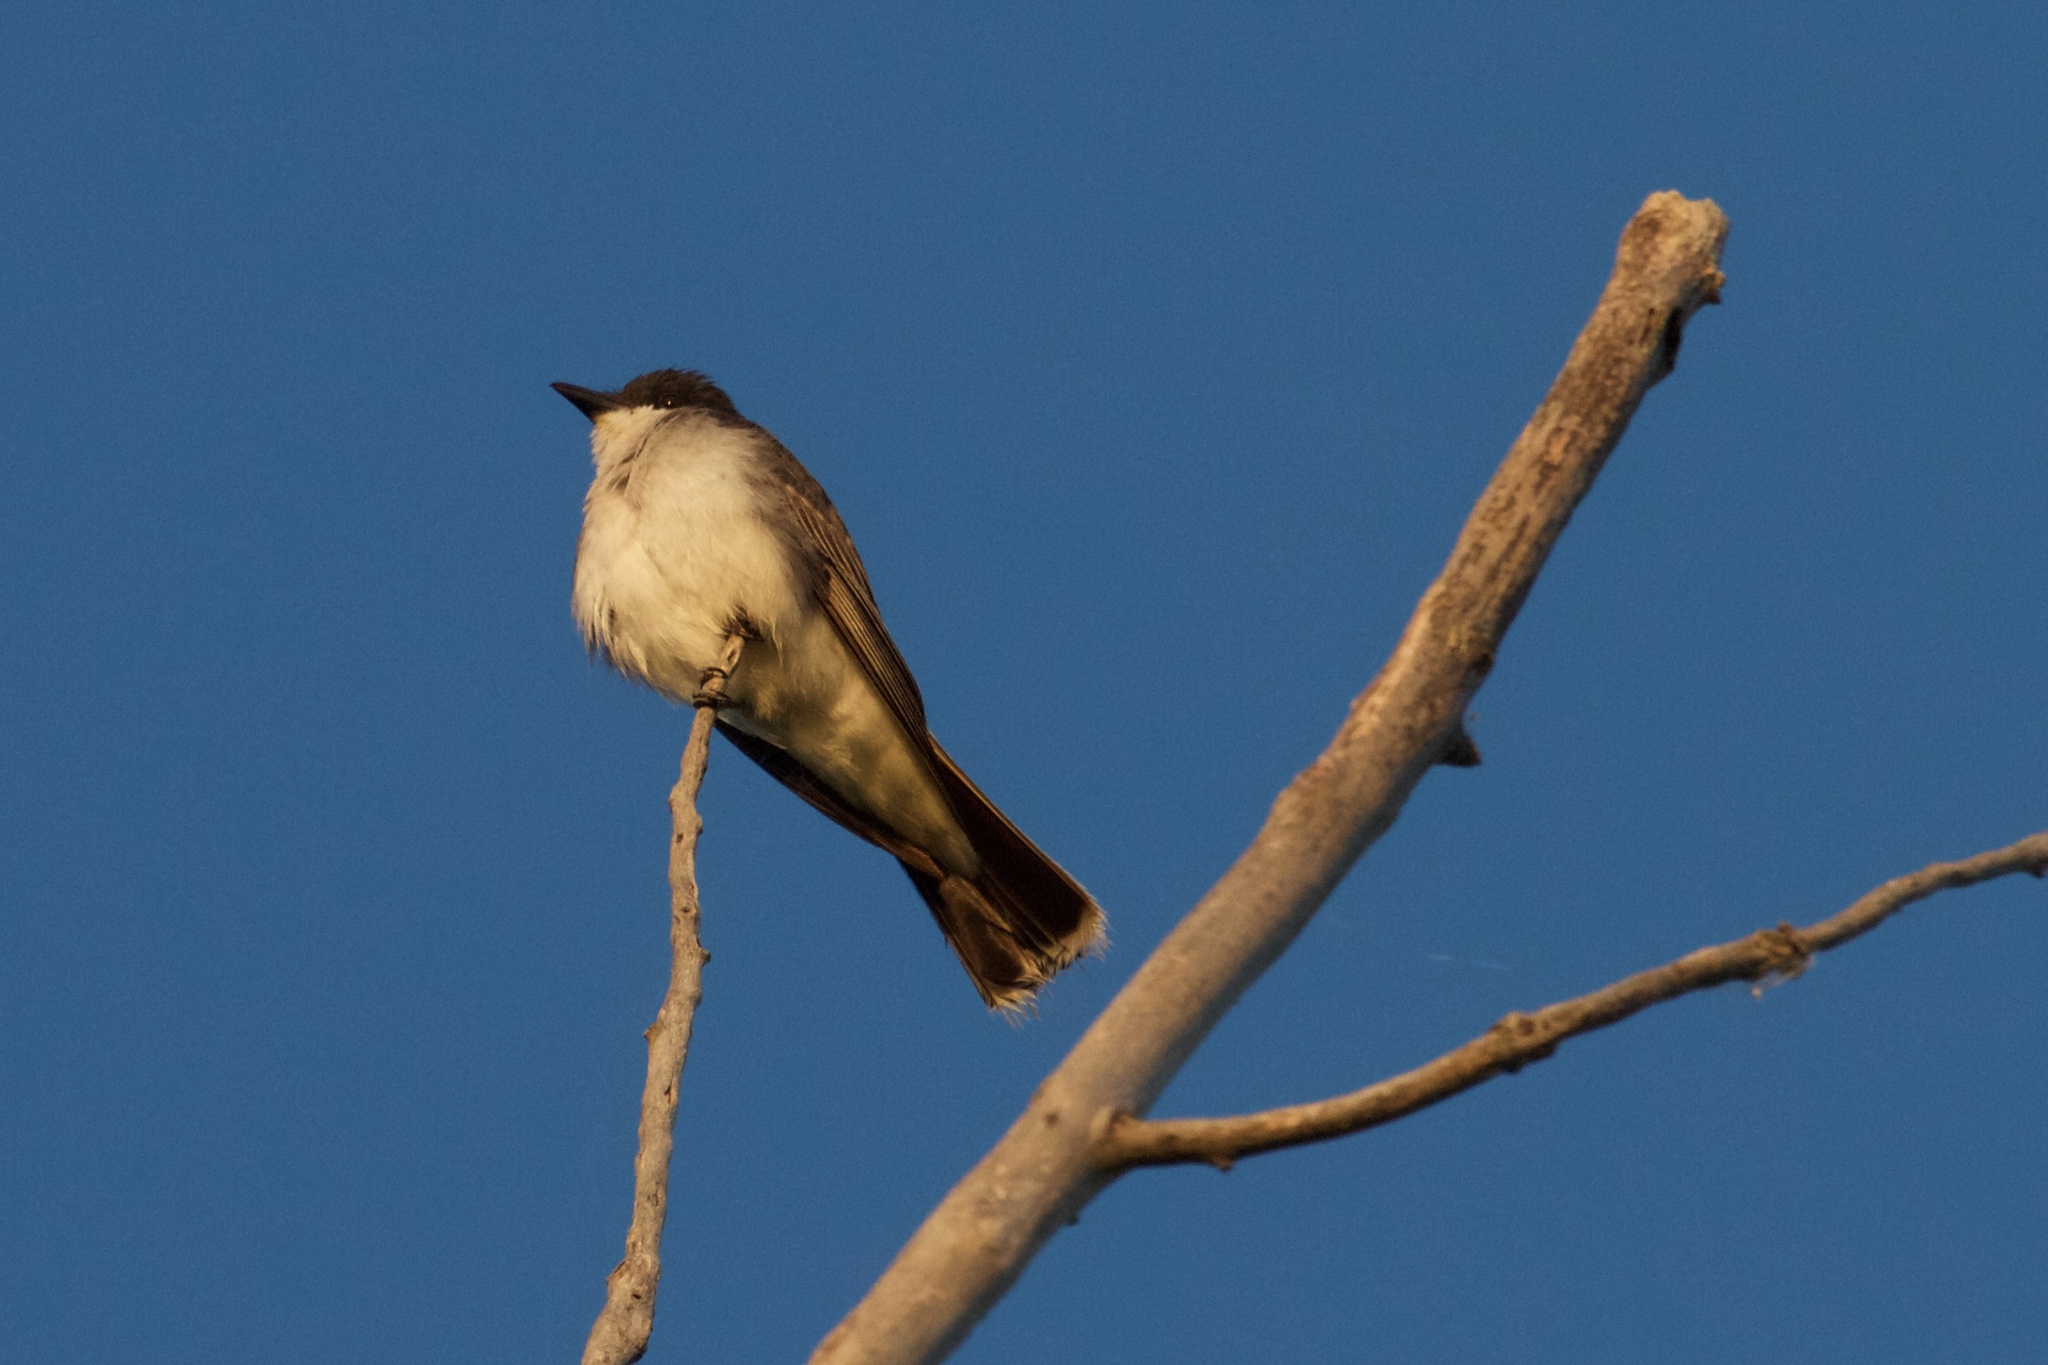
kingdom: Animalia
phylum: Chordata
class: Aves
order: Passeriformes
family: Tyrannidae
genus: Tyrannus
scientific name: Tyrannus tyrannus
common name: Eastern kingbird
